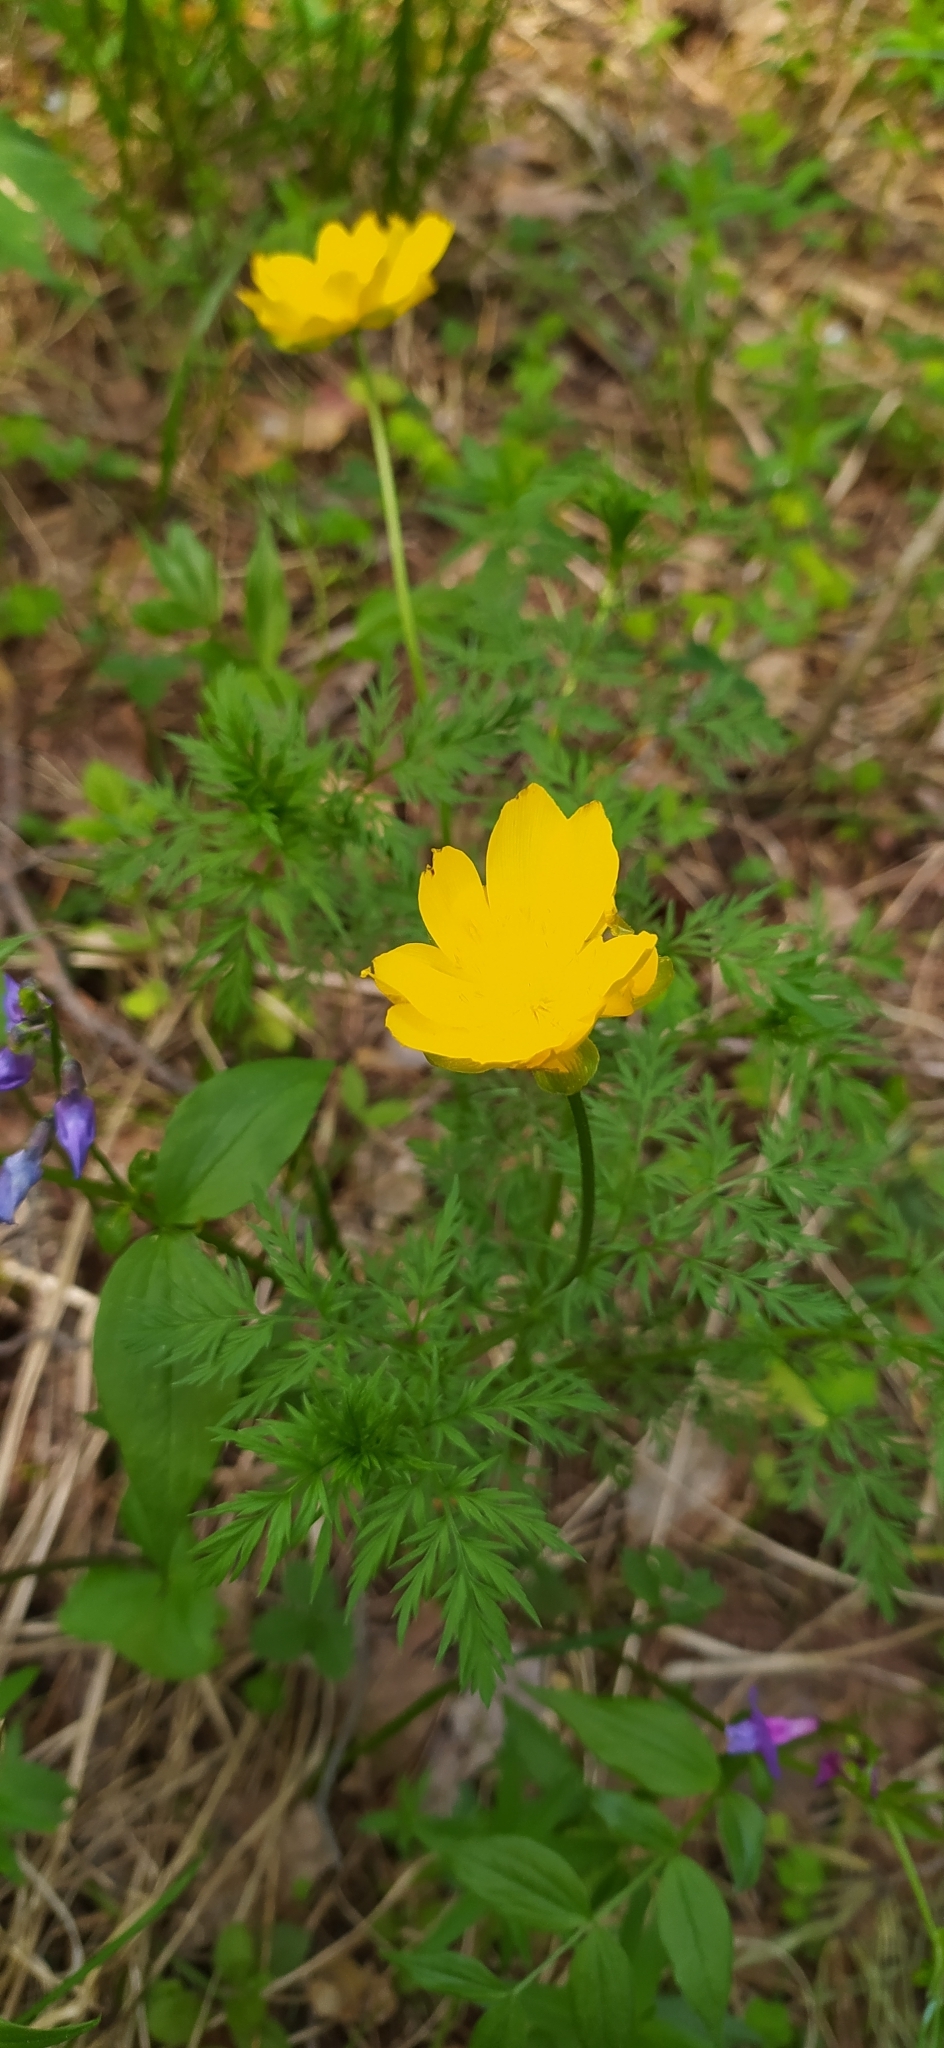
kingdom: Plantae
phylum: Tracheophyta
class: Magnoliopsida
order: Ranunculales
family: Ranunculaceae
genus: Adonis
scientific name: Adonis
